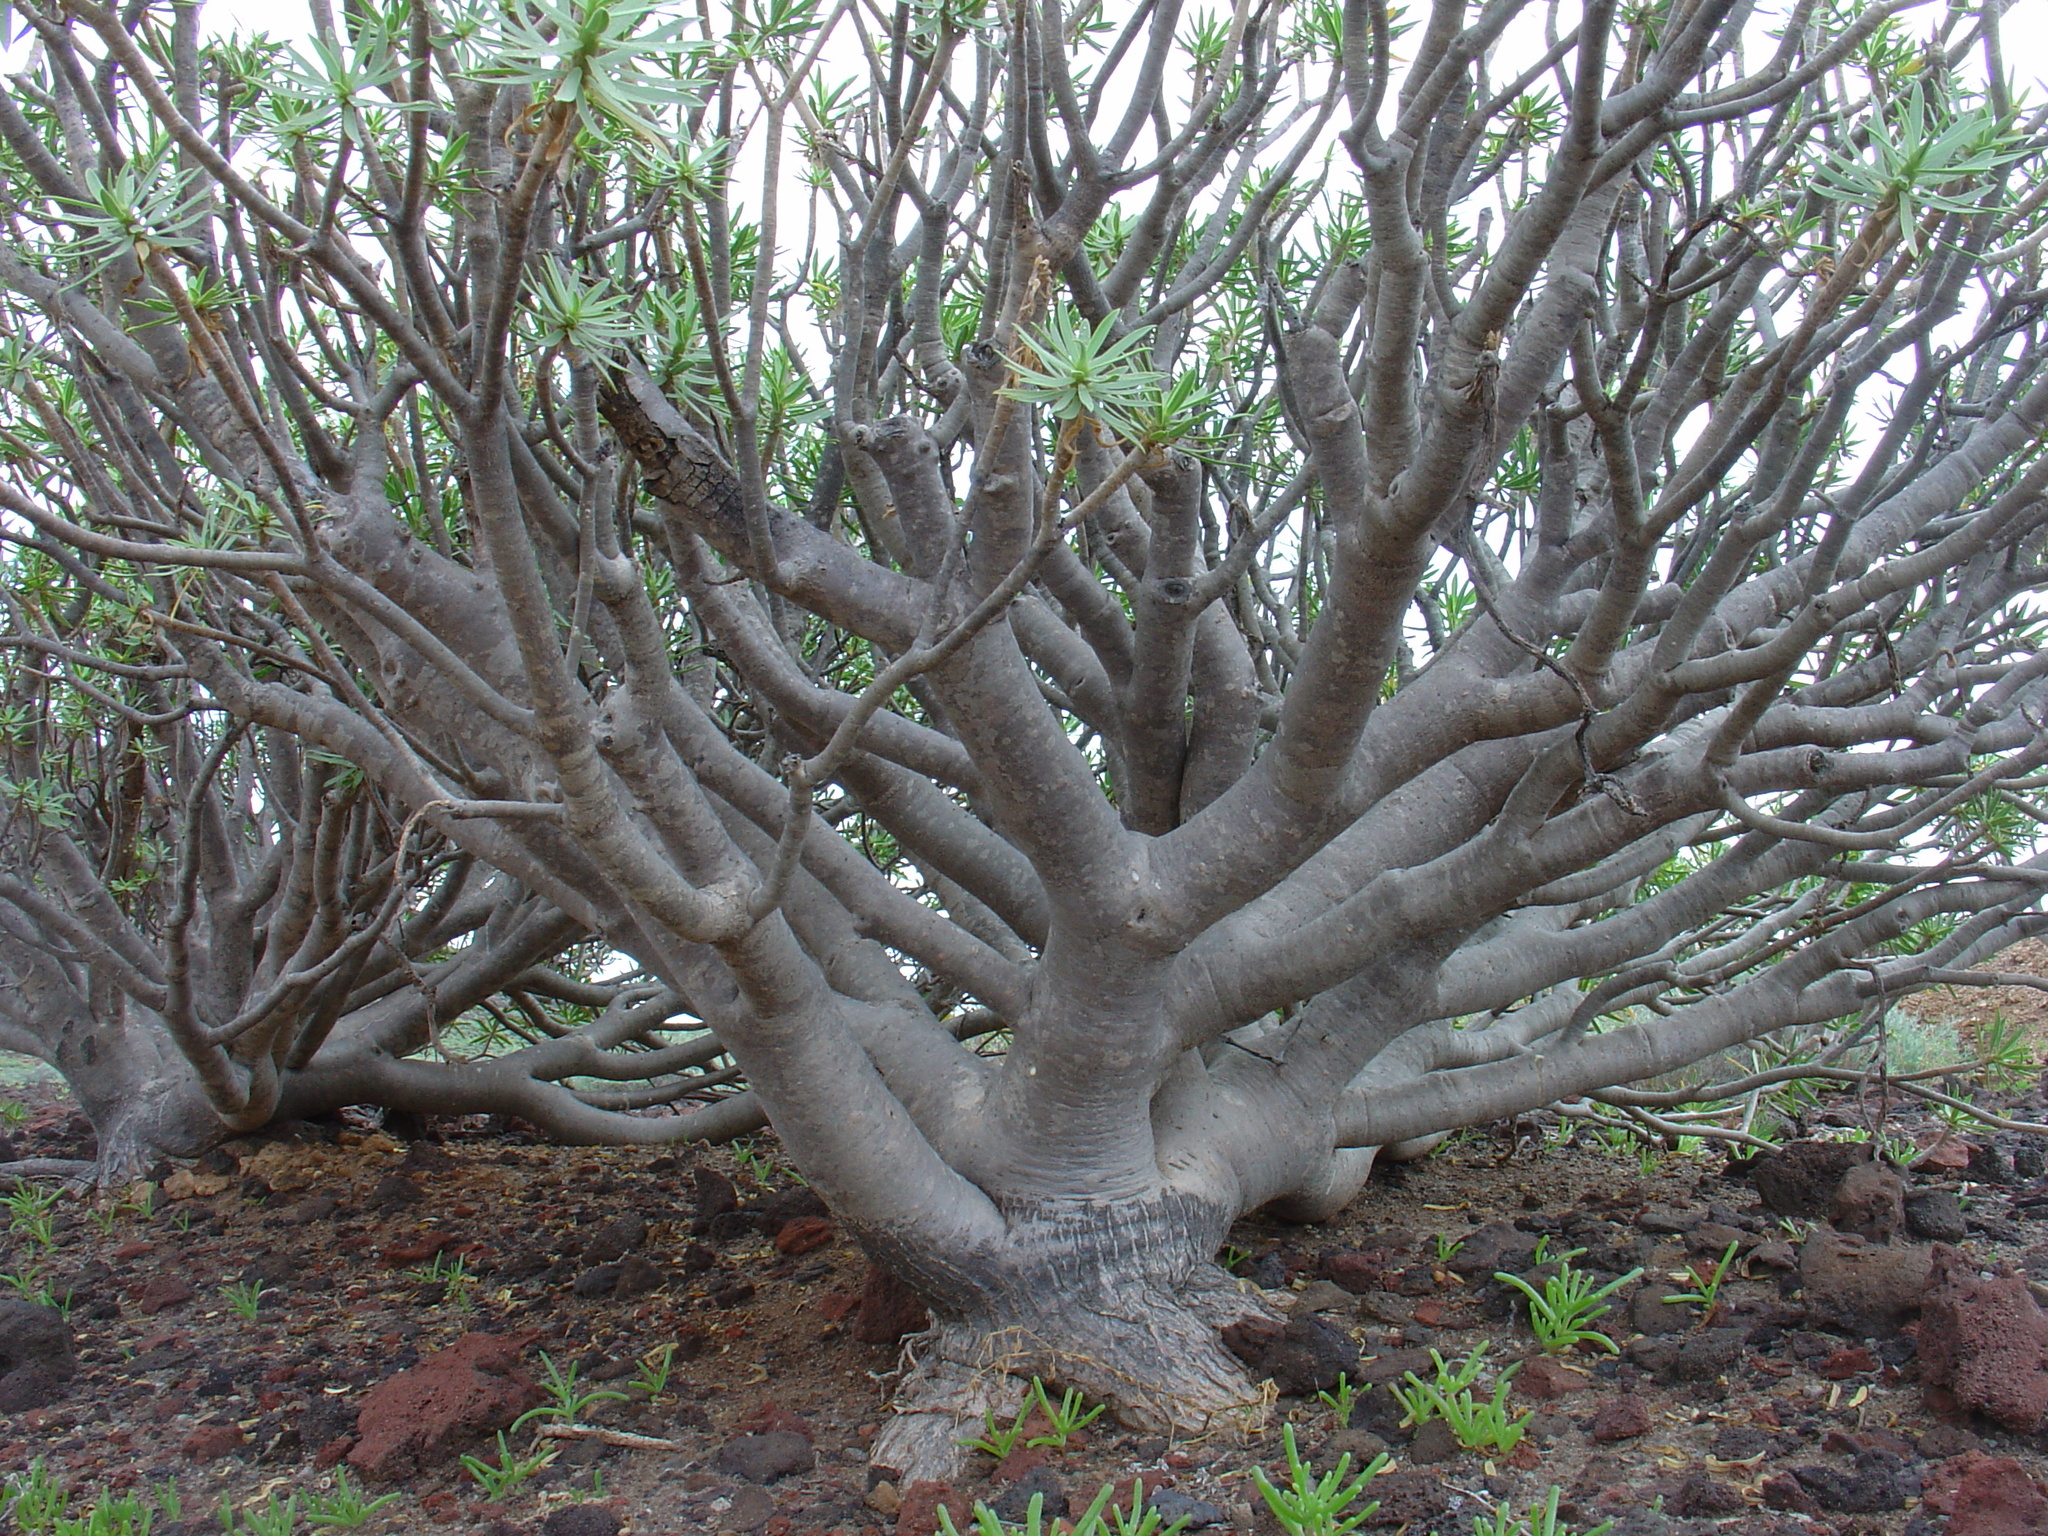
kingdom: Plantae
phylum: Tracheophyta
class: Magnoliopsida
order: Malpighiales
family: Euphorbiaceae
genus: Euphorbia
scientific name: Euphorbia balsamifera
